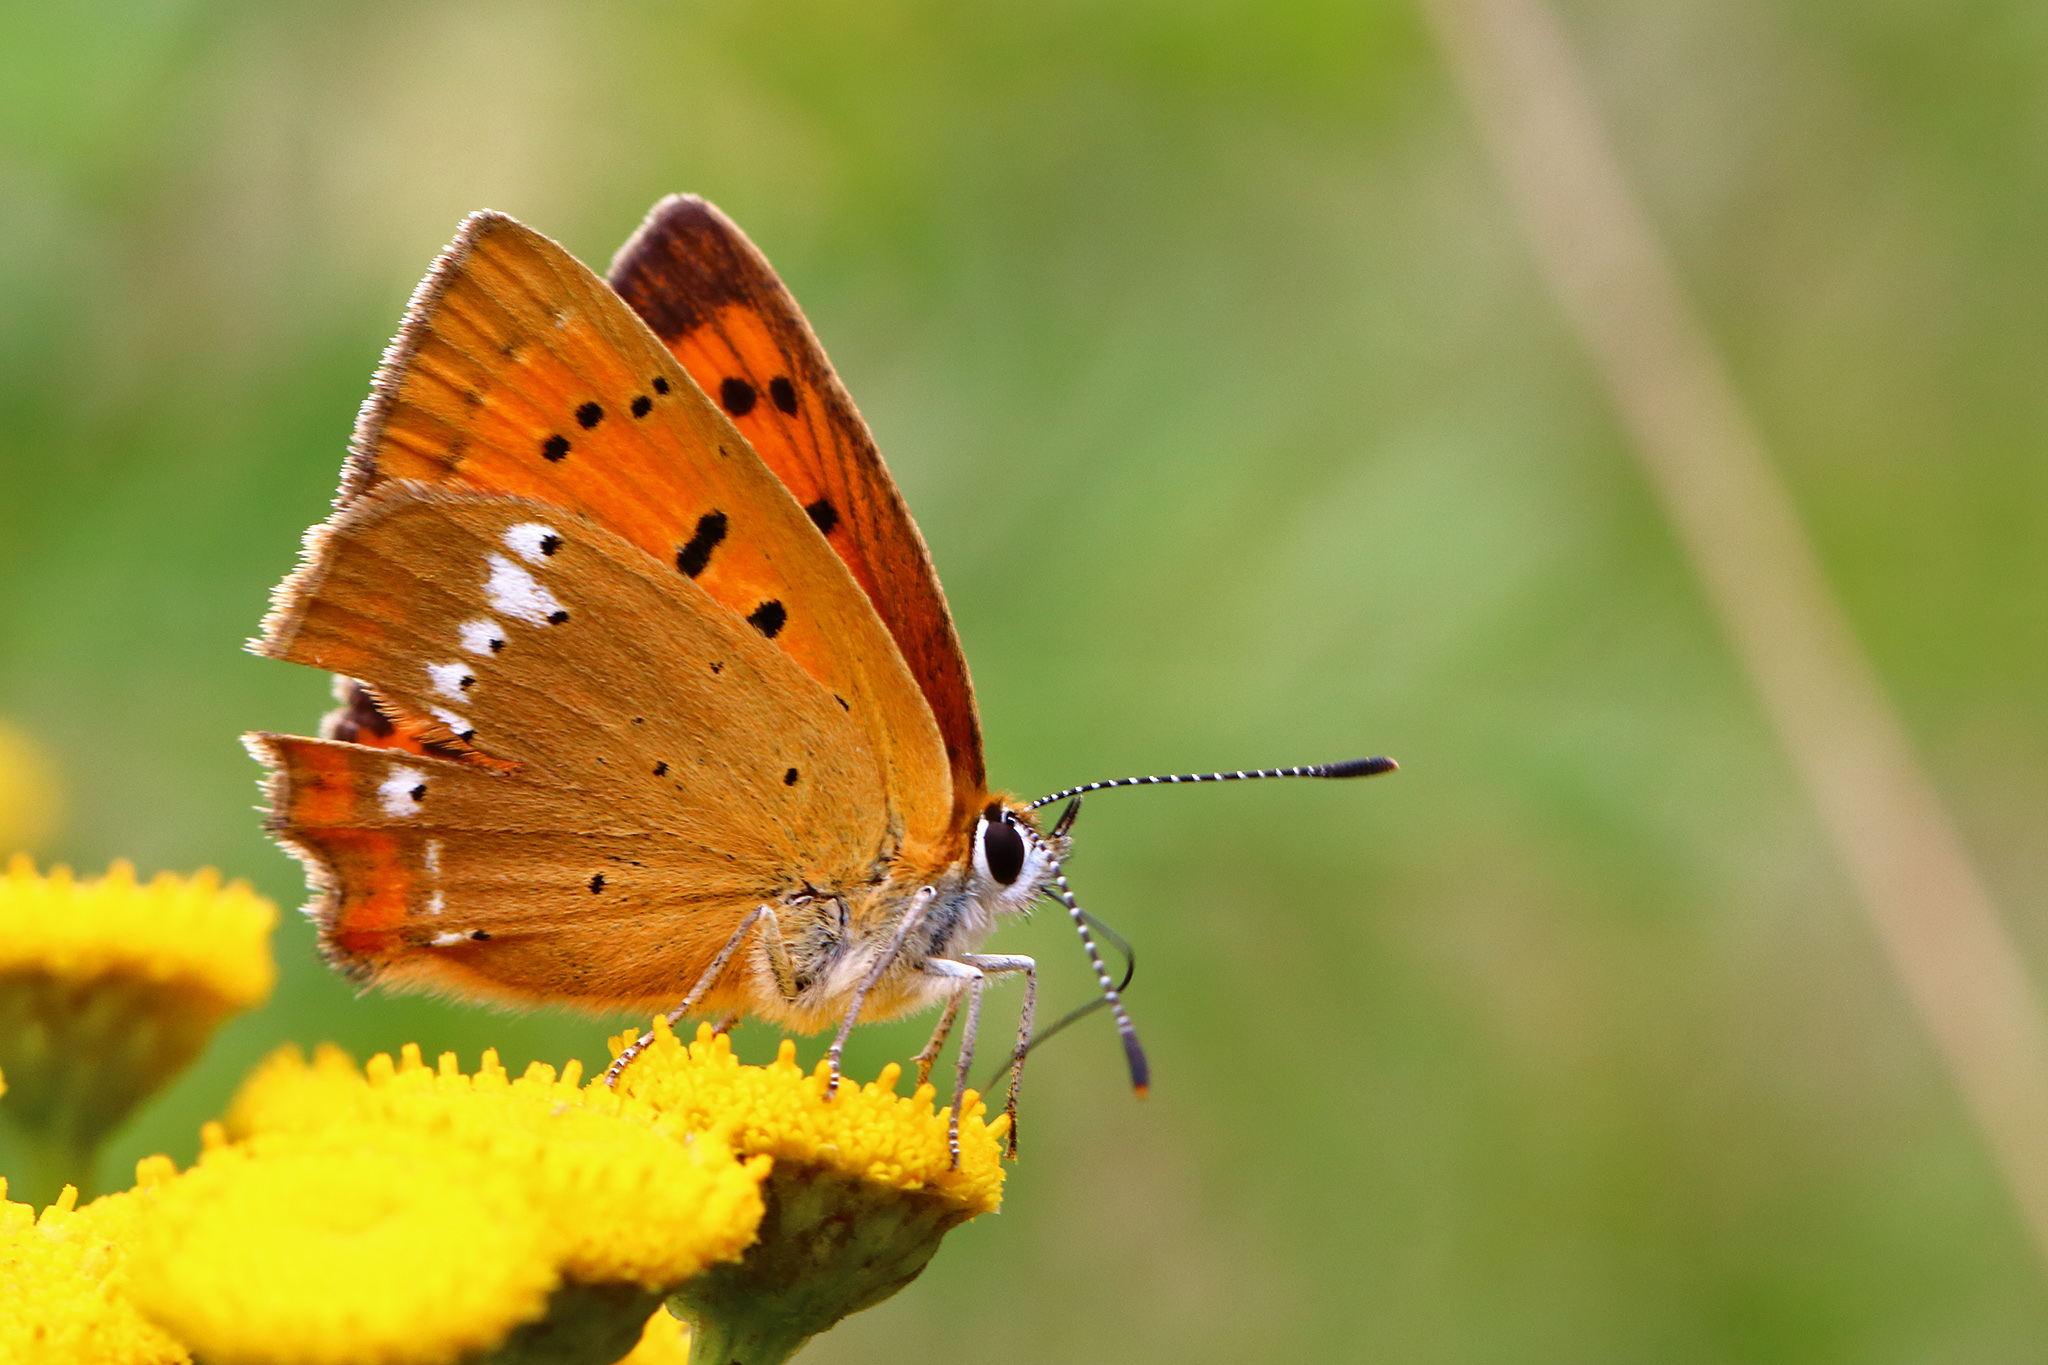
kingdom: Animalia
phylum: Arthropoda
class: Insecta
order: Lepidoptera
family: Lycaenidae
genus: Lycaena
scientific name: Lycaena virgaureae
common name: Scarce copper
